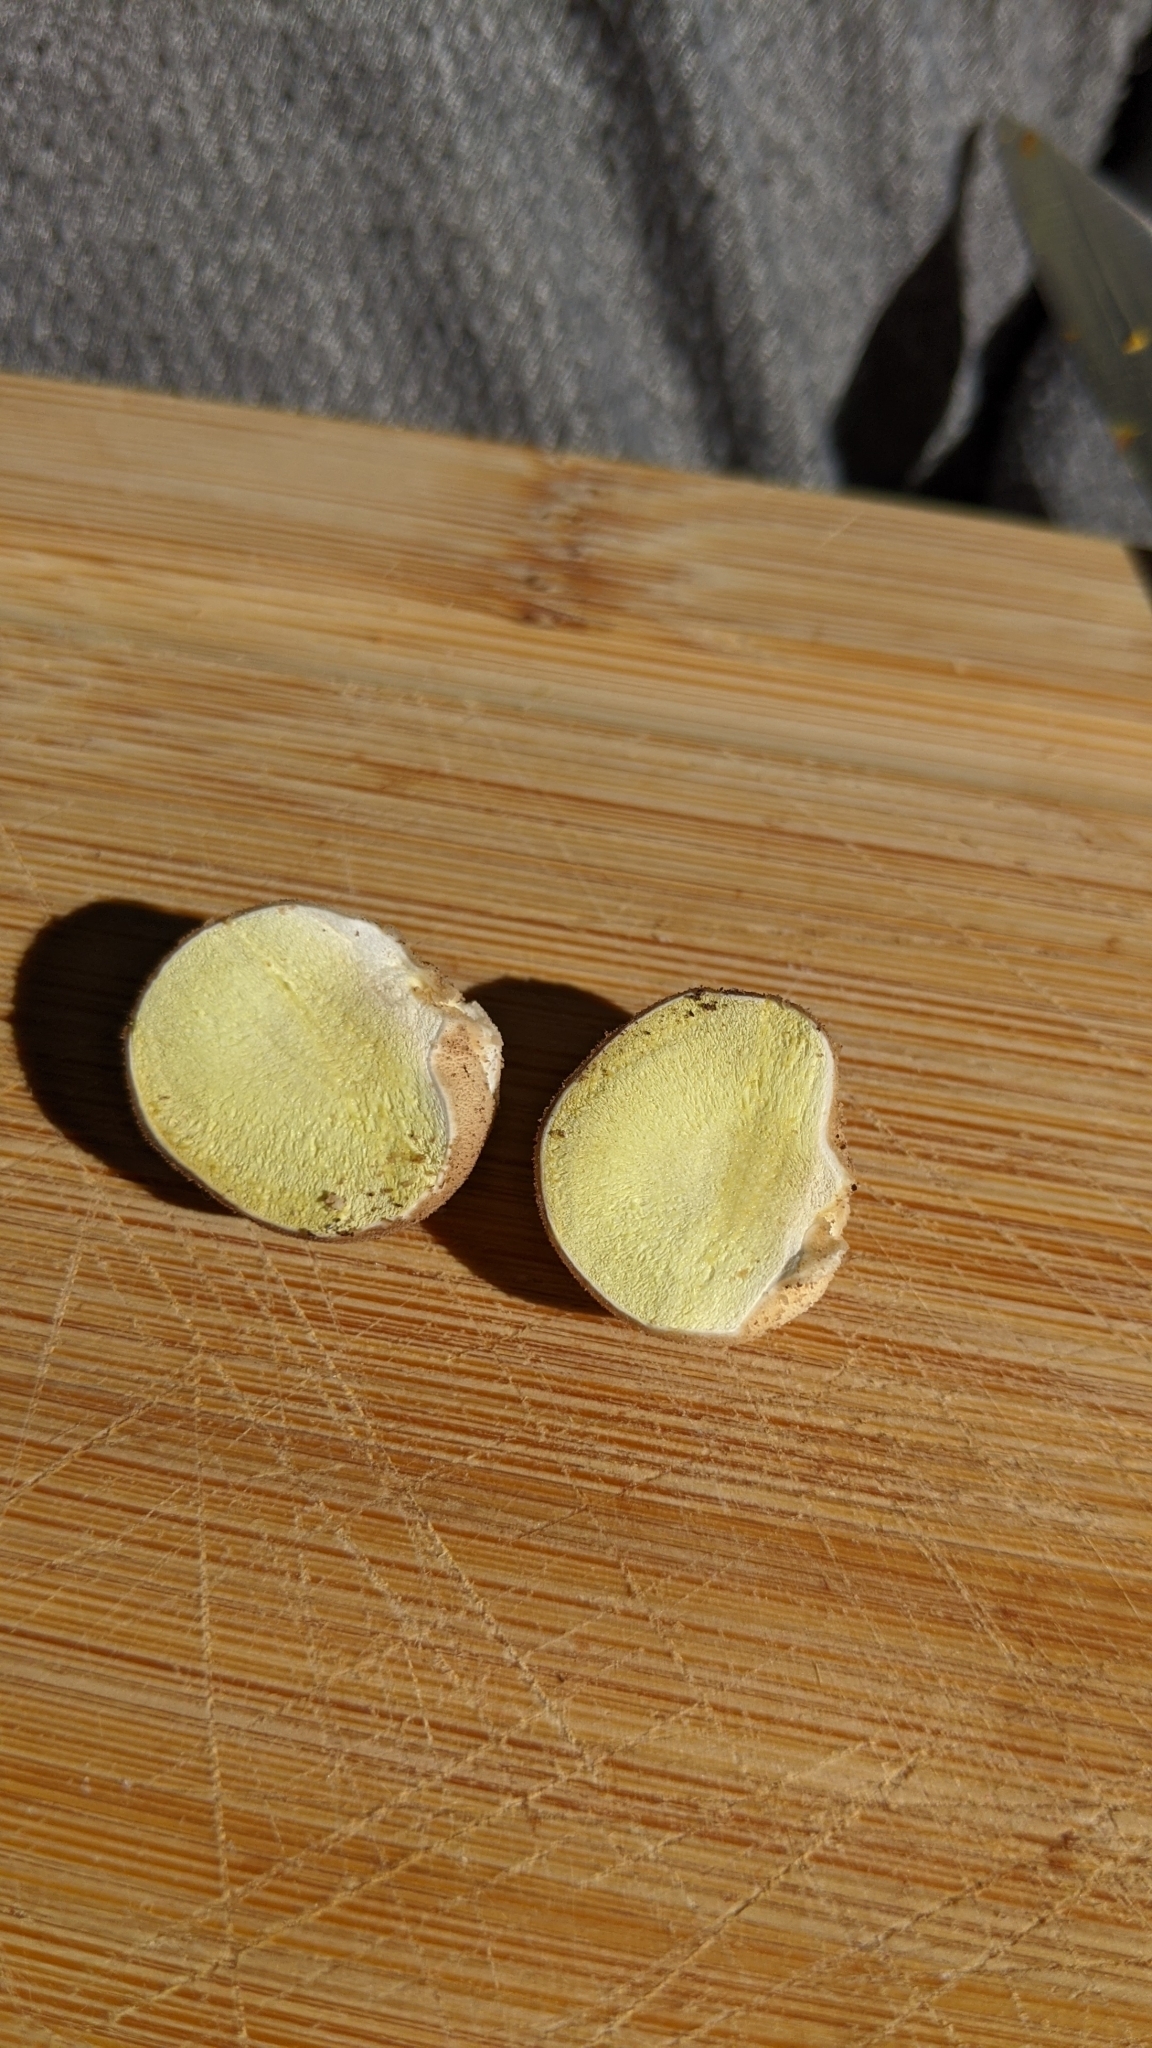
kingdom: Fungi
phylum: Basidiomycota
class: Agaricomycetes
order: Agaricales
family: Lycoperdaceae
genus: Apioperdon
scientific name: Apioperdon pyriforme
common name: Pear-shaped puffball
